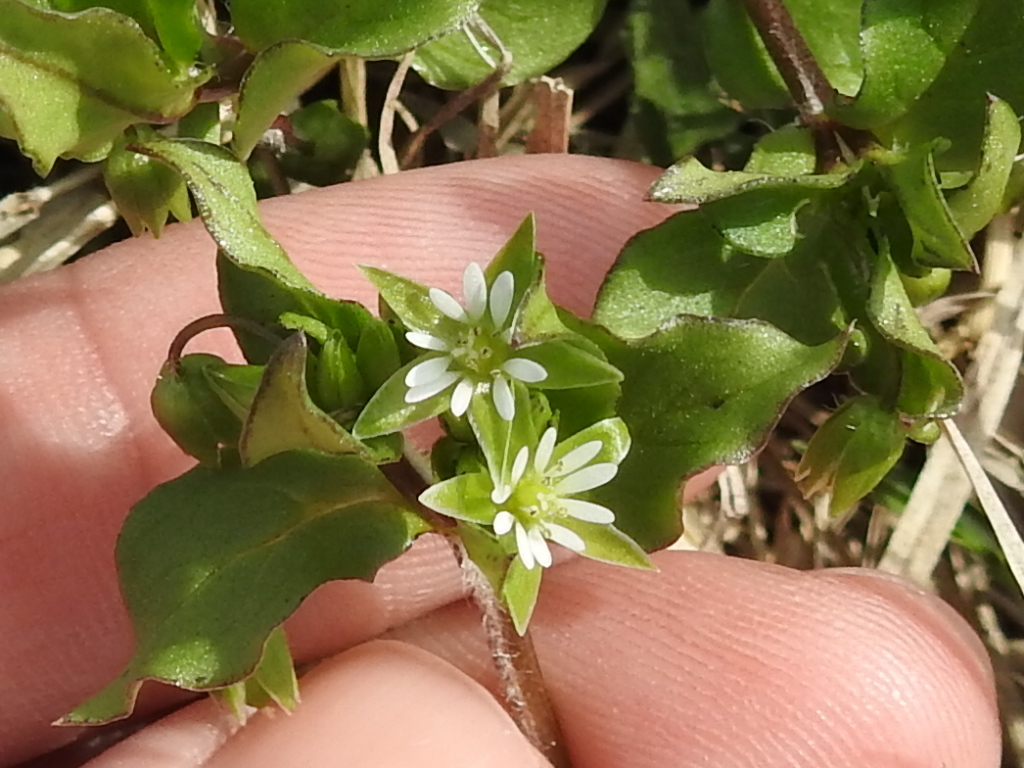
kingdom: Plantae
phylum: Tracheophyta
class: Magnoliopsida
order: Caryophyllales
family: Caryophyllaceae
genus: Stellaria
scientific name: Stellaria media
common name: Common chickweed
